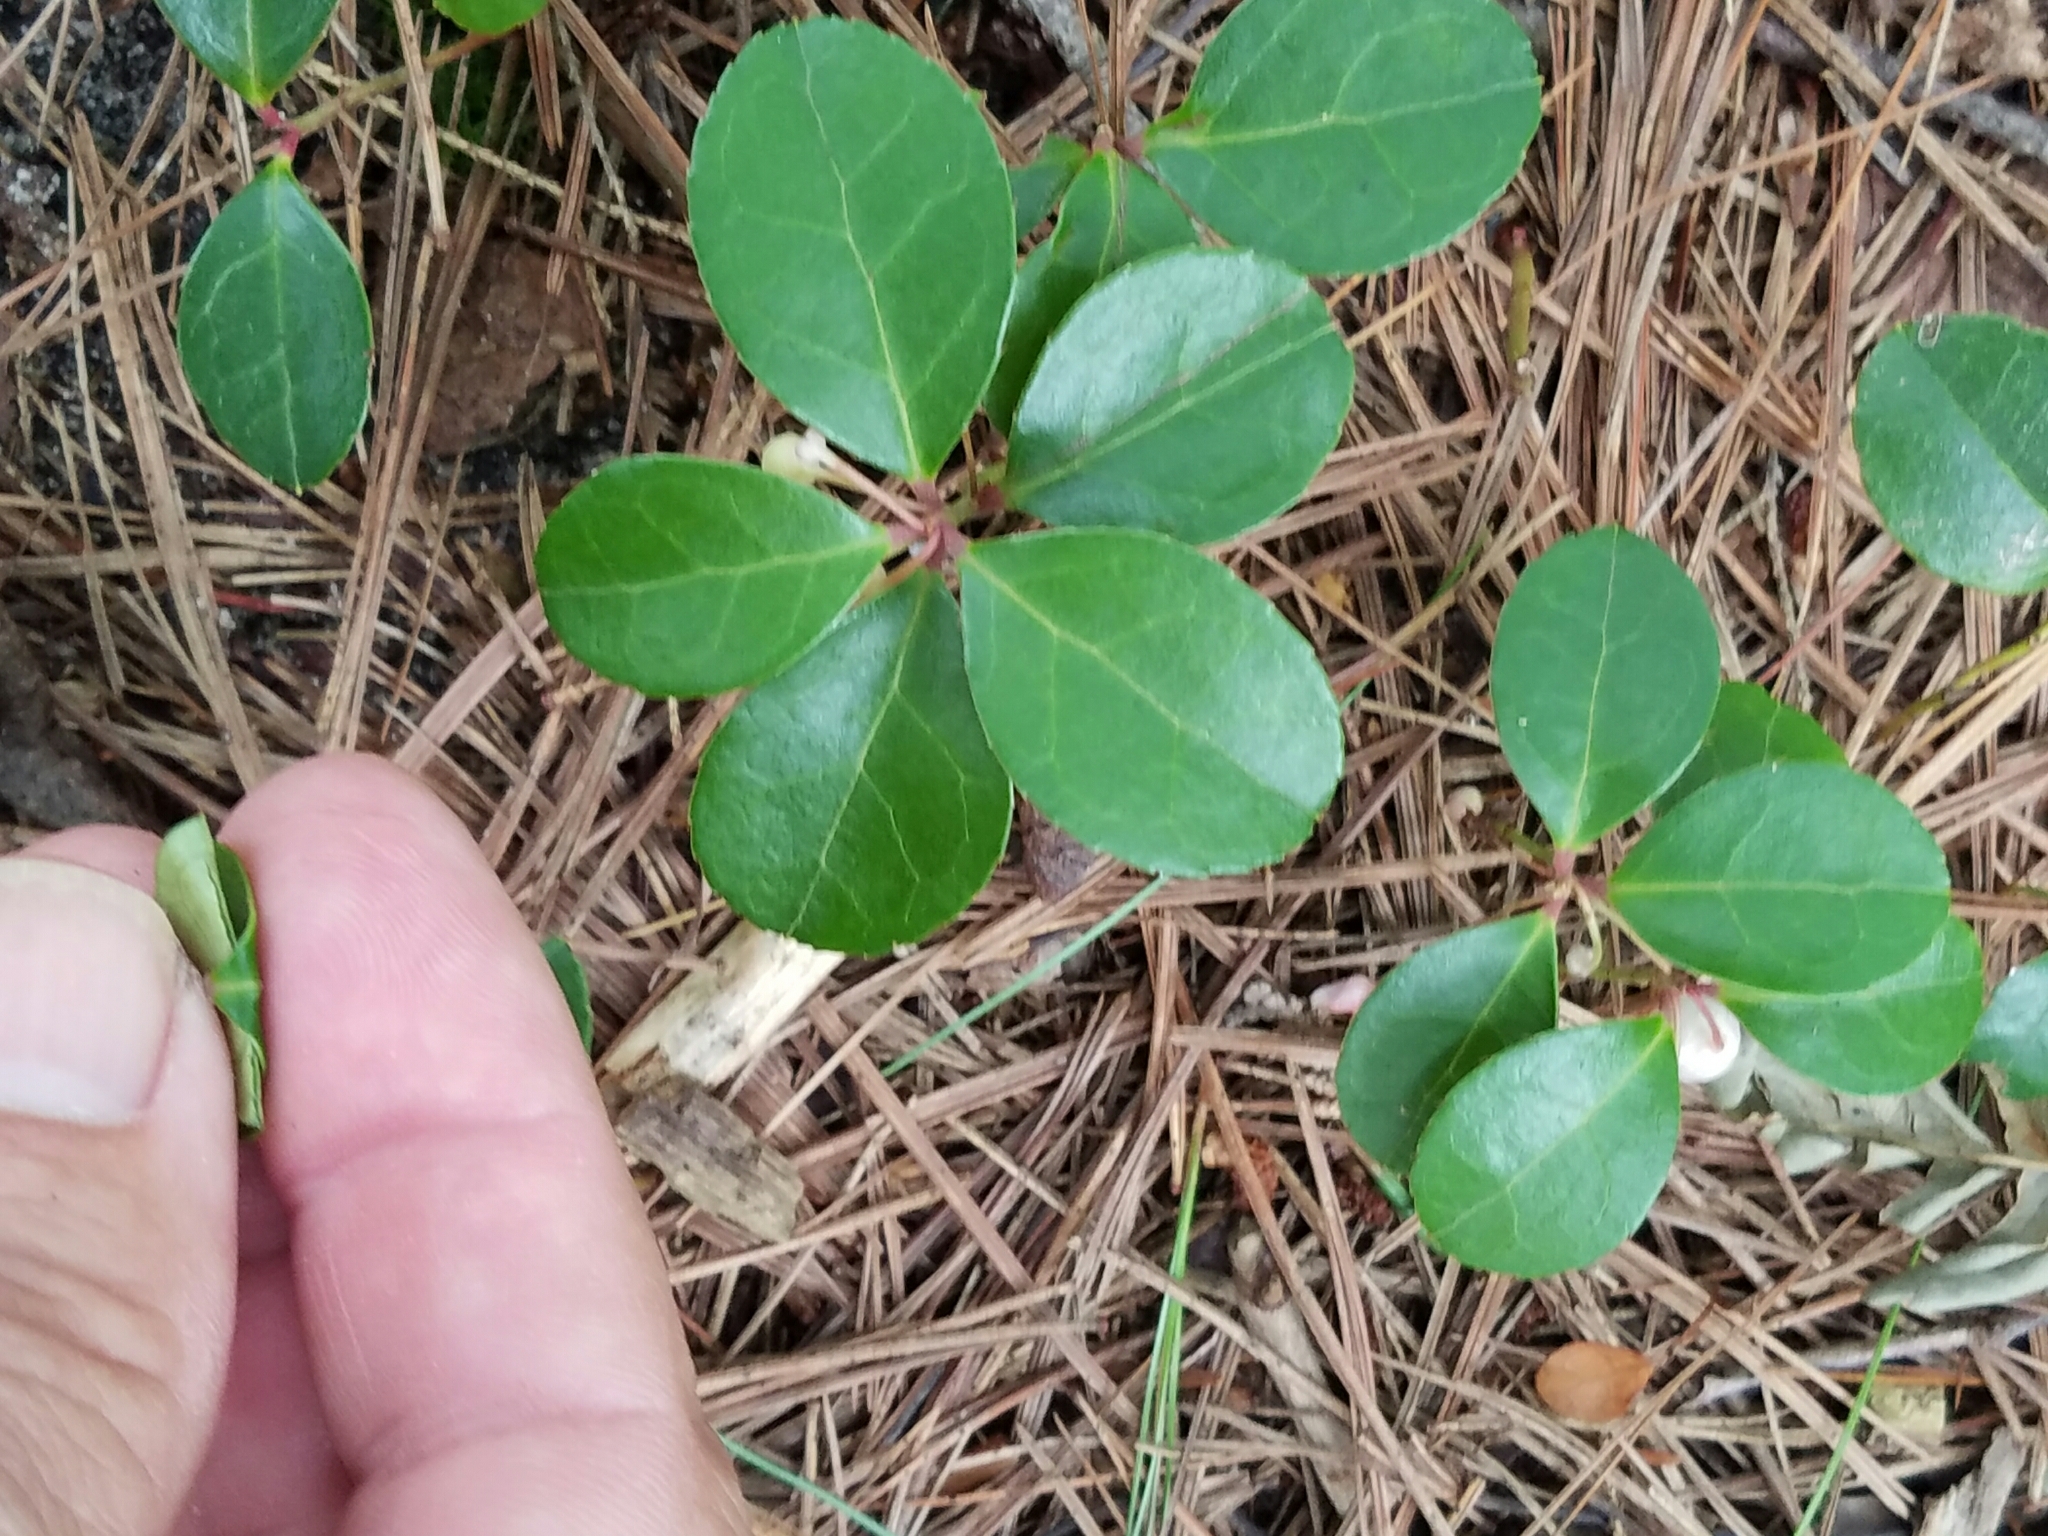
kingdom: Plantae
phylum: Tracheophyta
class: Magnoliopsida
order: Ericales
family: Ericaceae
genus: Gaultheria
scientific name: Gaultheria procumbens
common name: Checkerberry
